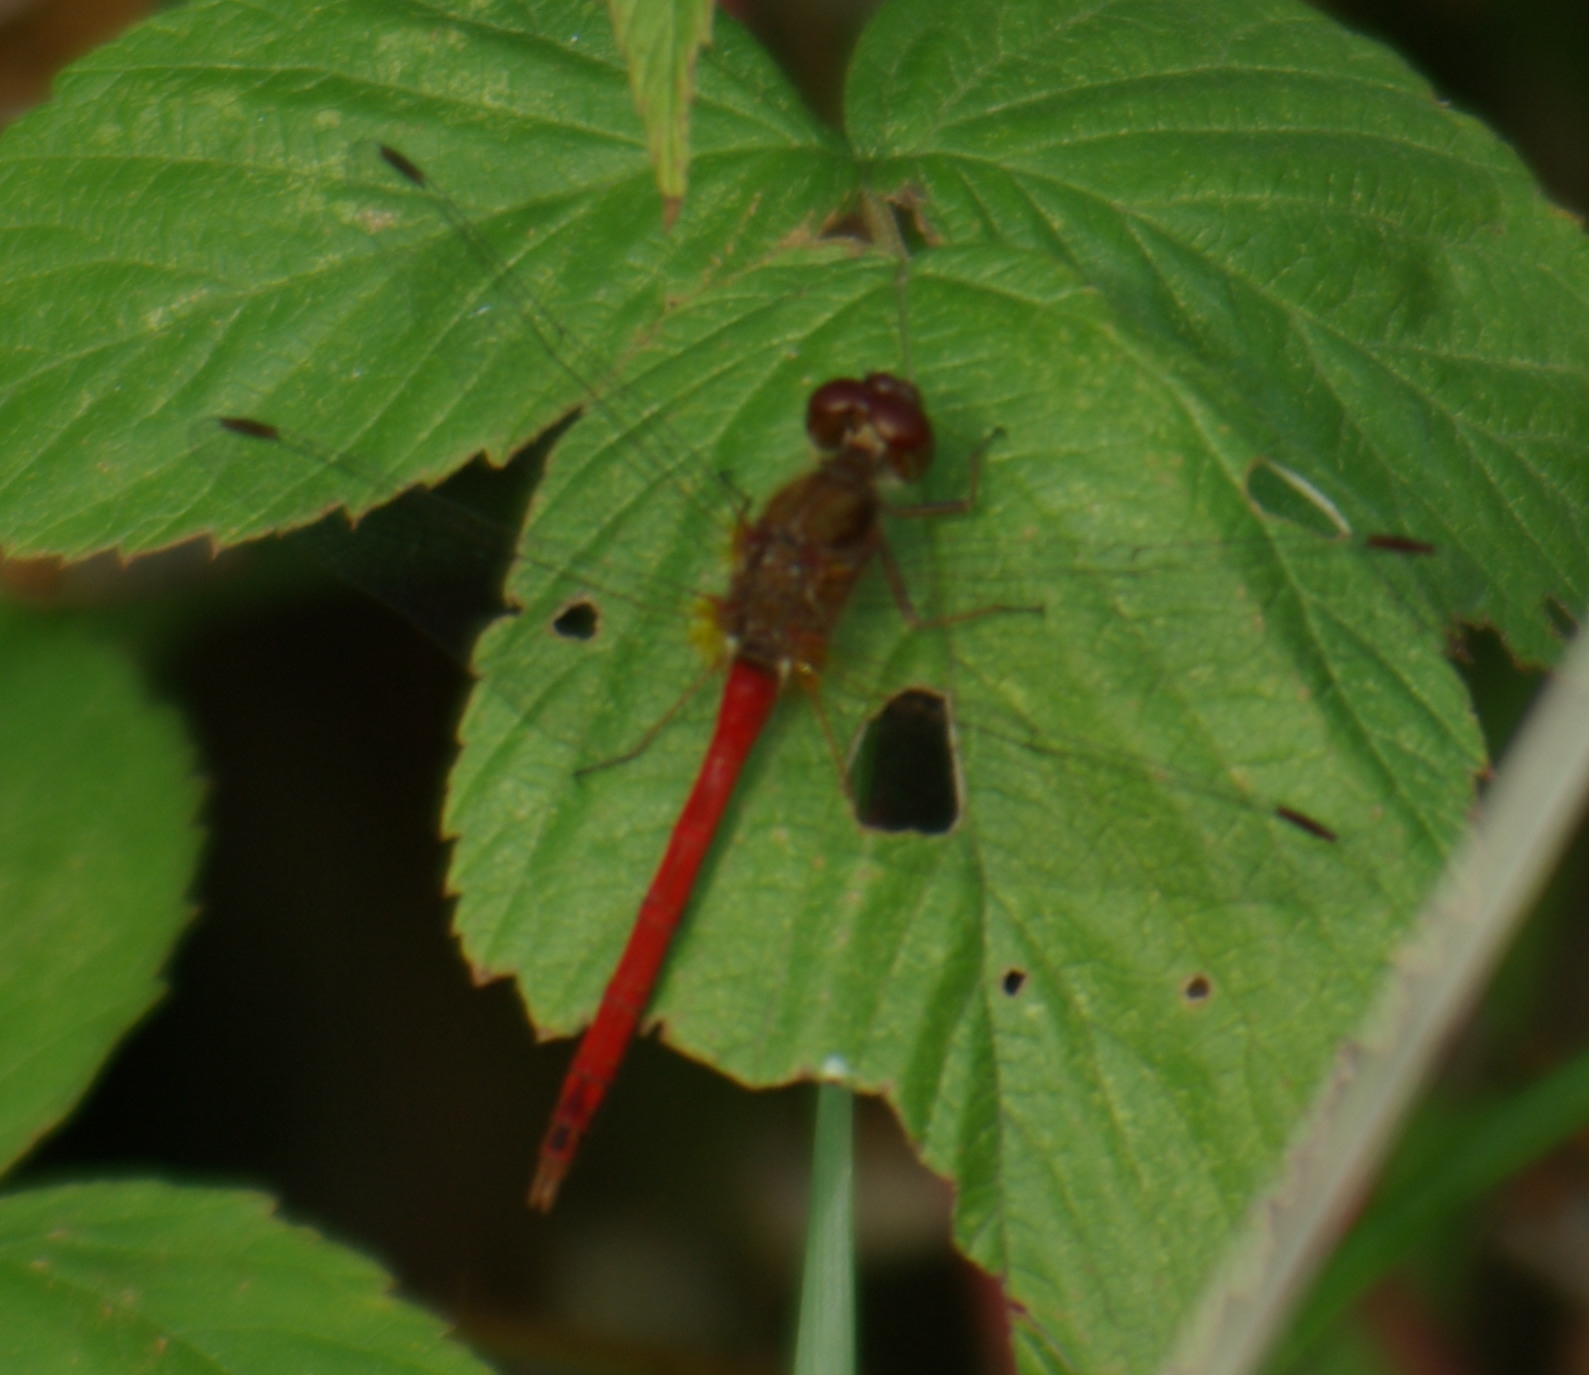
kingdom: Animalia
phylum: Arthropoda
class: Insecta
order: Odonata
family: Libellulidae
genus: Sympetrum
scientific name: Sympetrum vicinum
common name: Autumn meadowhawk
